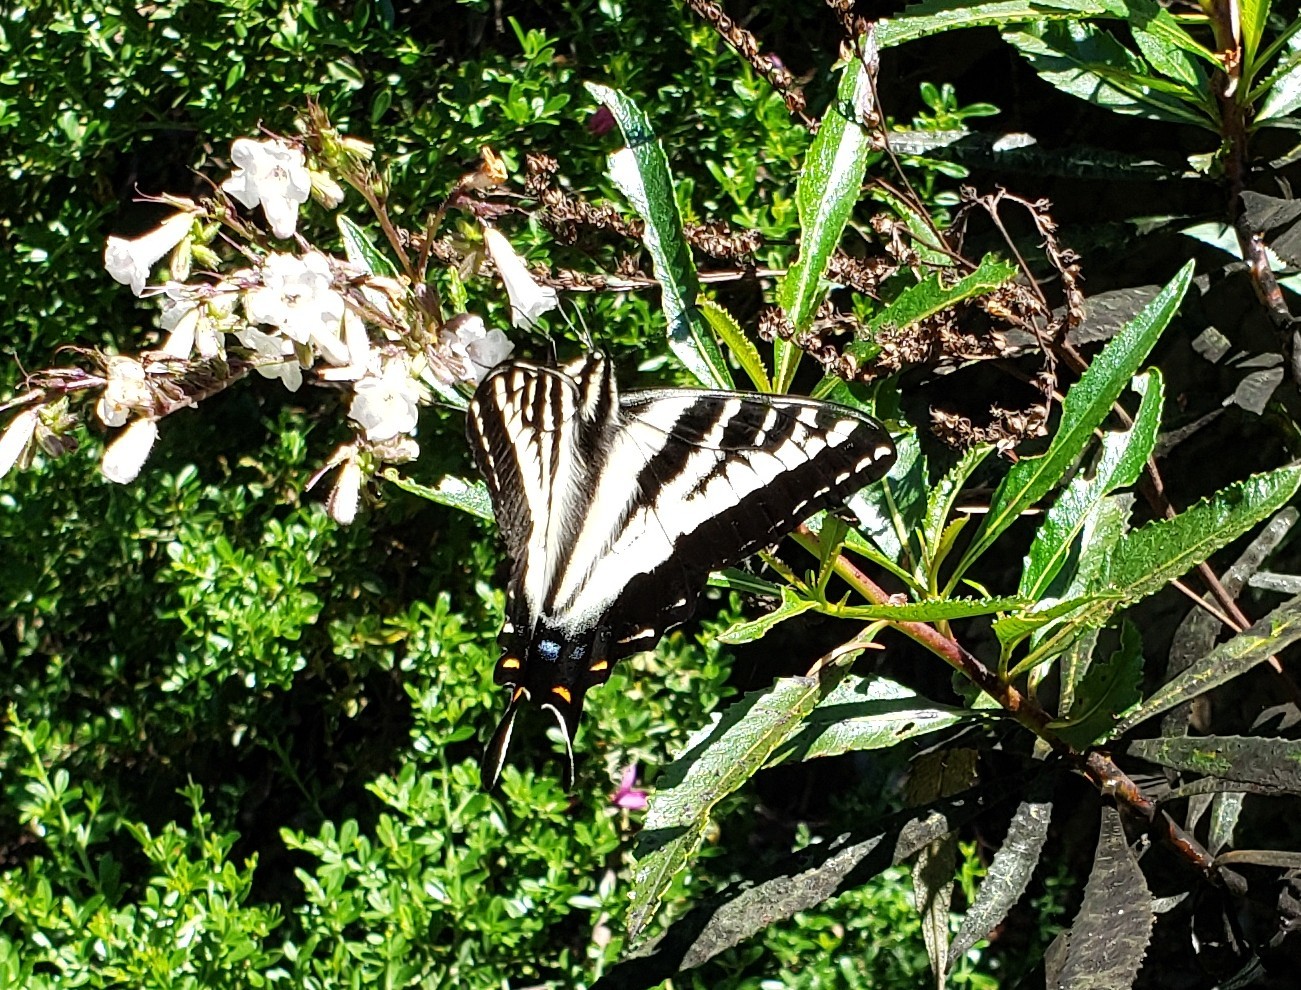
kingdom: Animalia
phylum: Arthropoda
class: Insecta
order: Lepidoptera
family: Papilionidae
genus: Papilio
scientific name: Papilio eurymedon
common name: Pale tiger swallowtail
